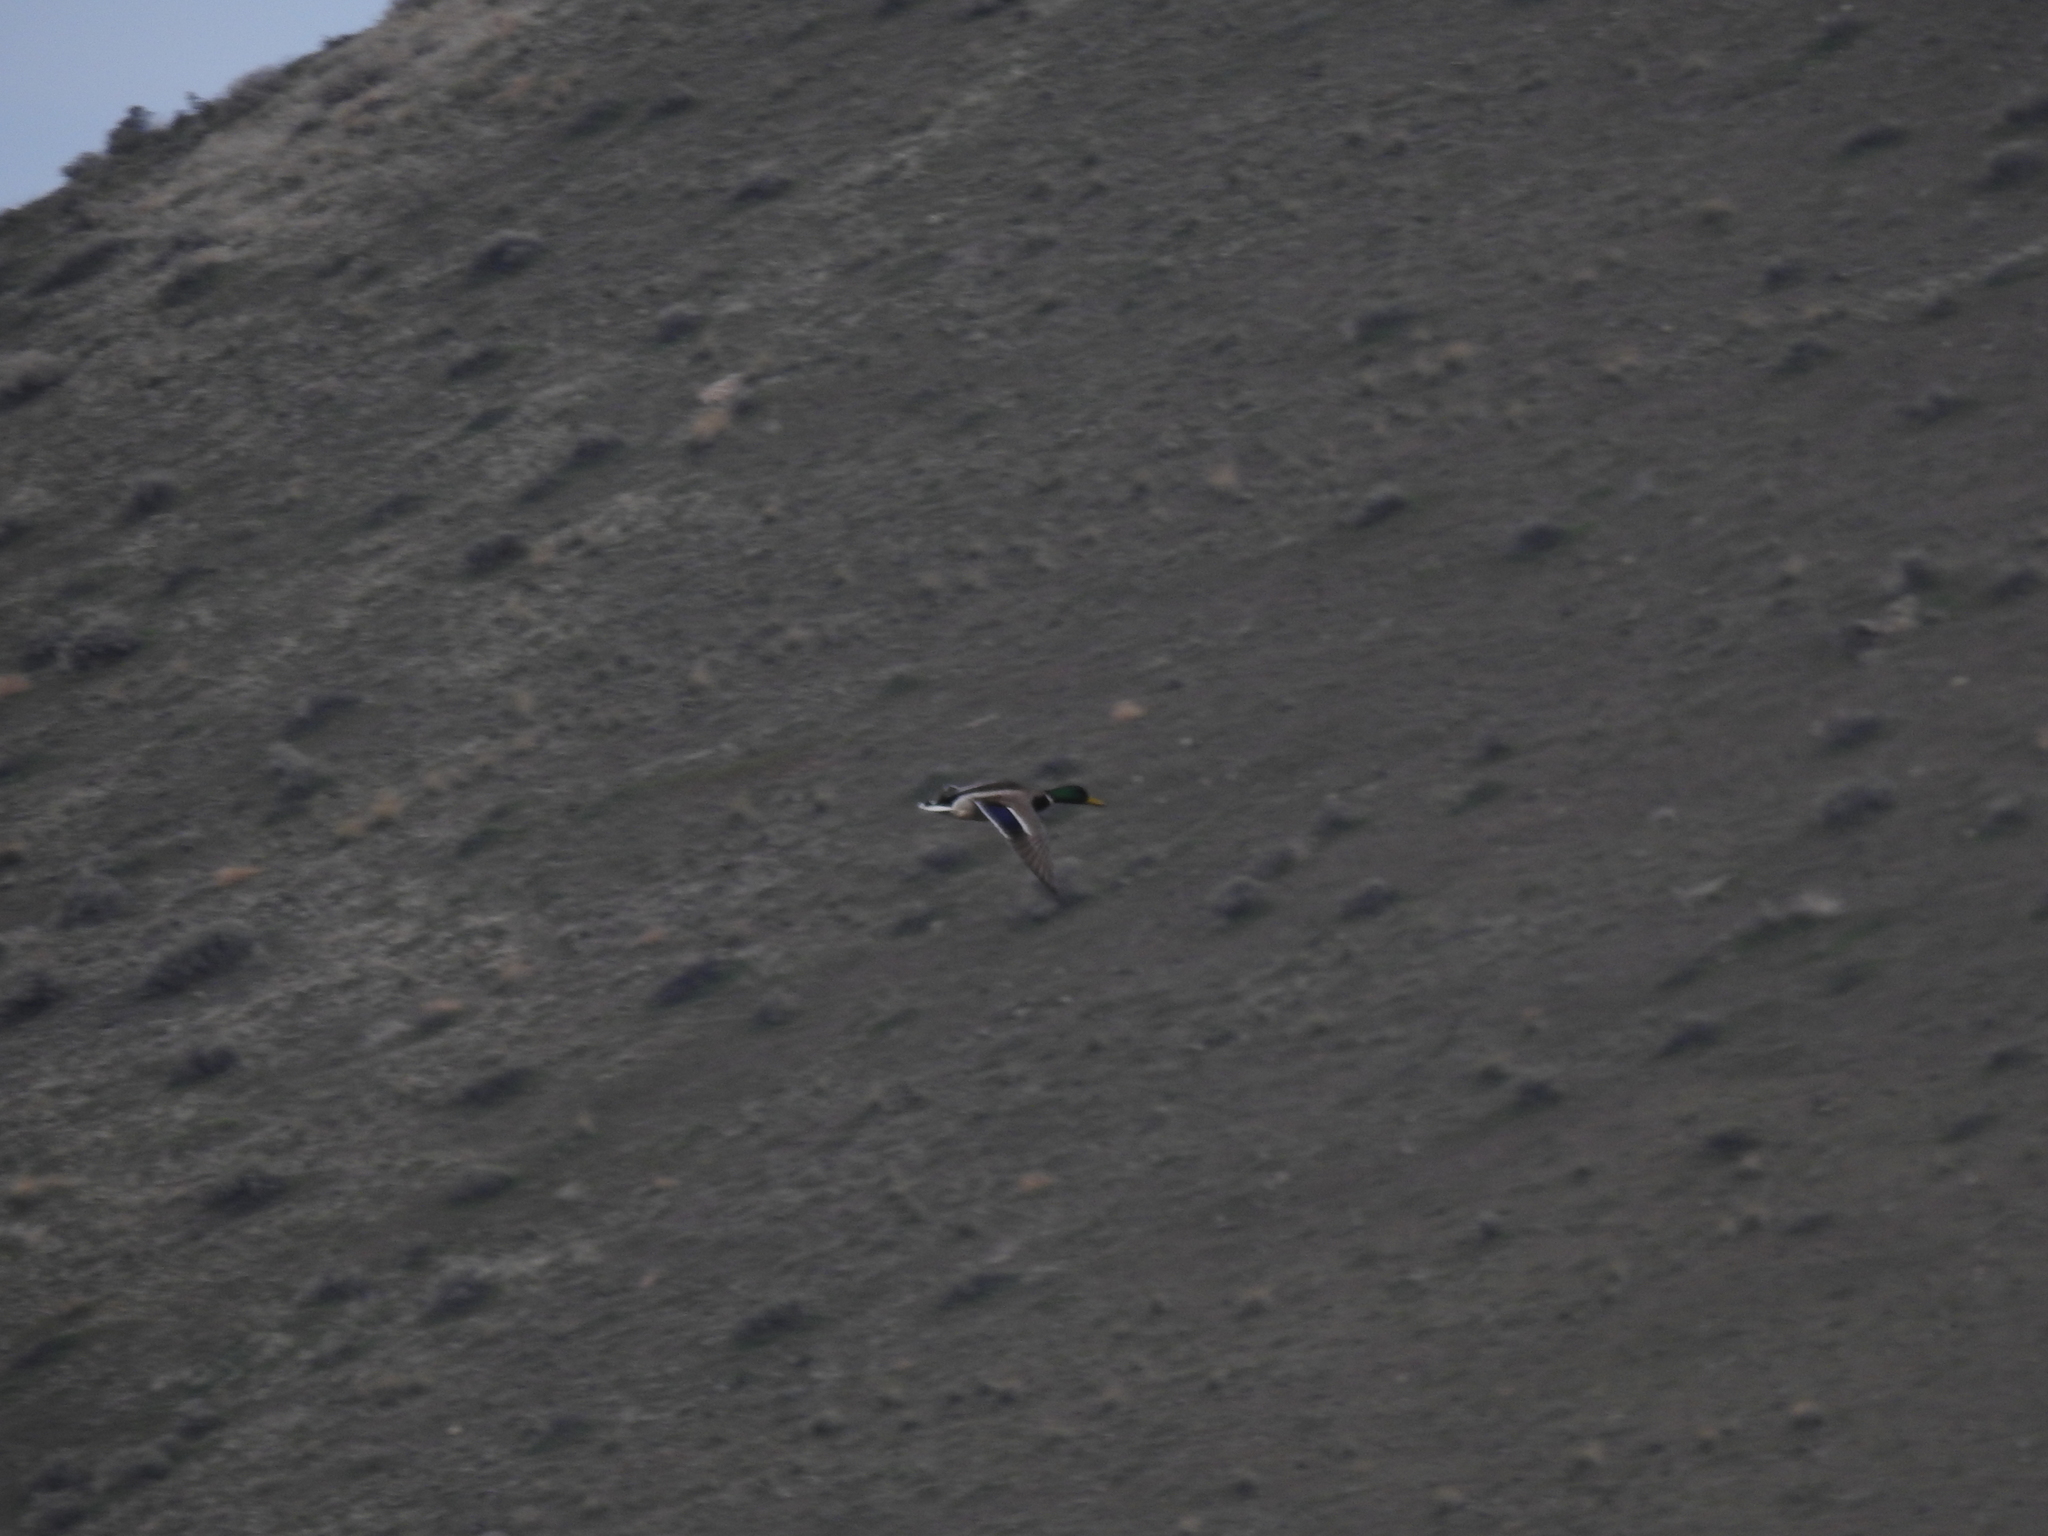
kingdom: Animalia
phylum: Chordata
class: Aves
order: Anseriformes
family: Anatidae
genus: Anas
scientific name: Anas platyrhynchos
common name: Mallard
